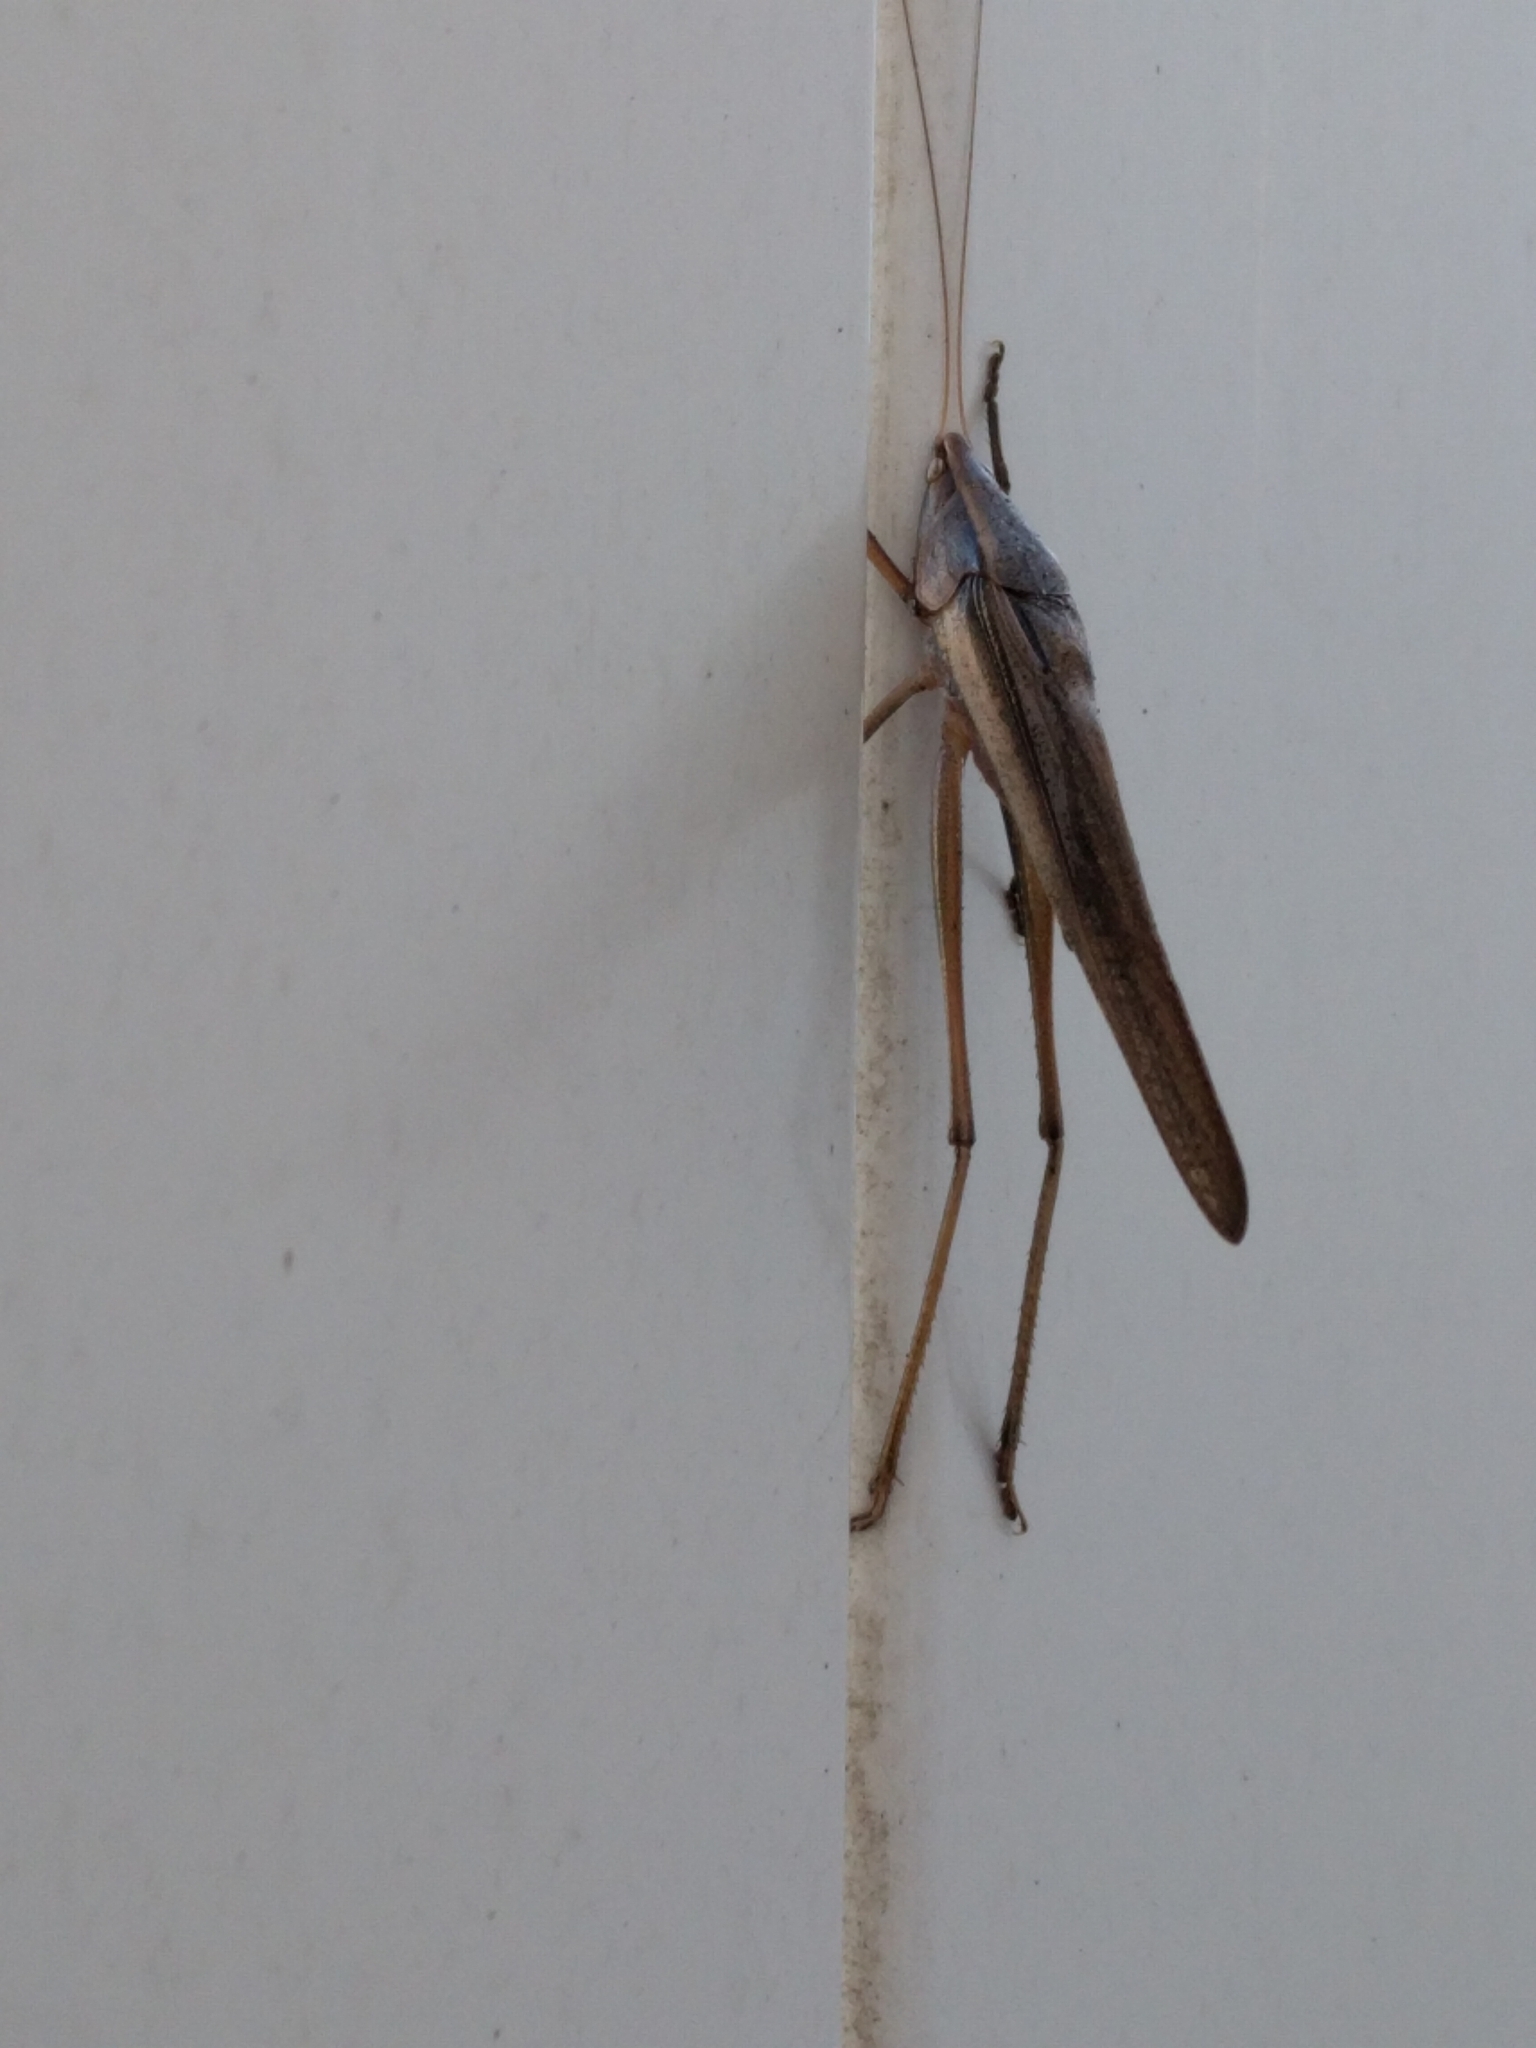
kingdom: Animalia
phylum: Arthropoda
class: Insecta
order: Orthoptera
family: Tettigoniidae
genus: Neoconocephalus
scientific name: Neoconocephalus triops
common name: Broad-tipped conehead
